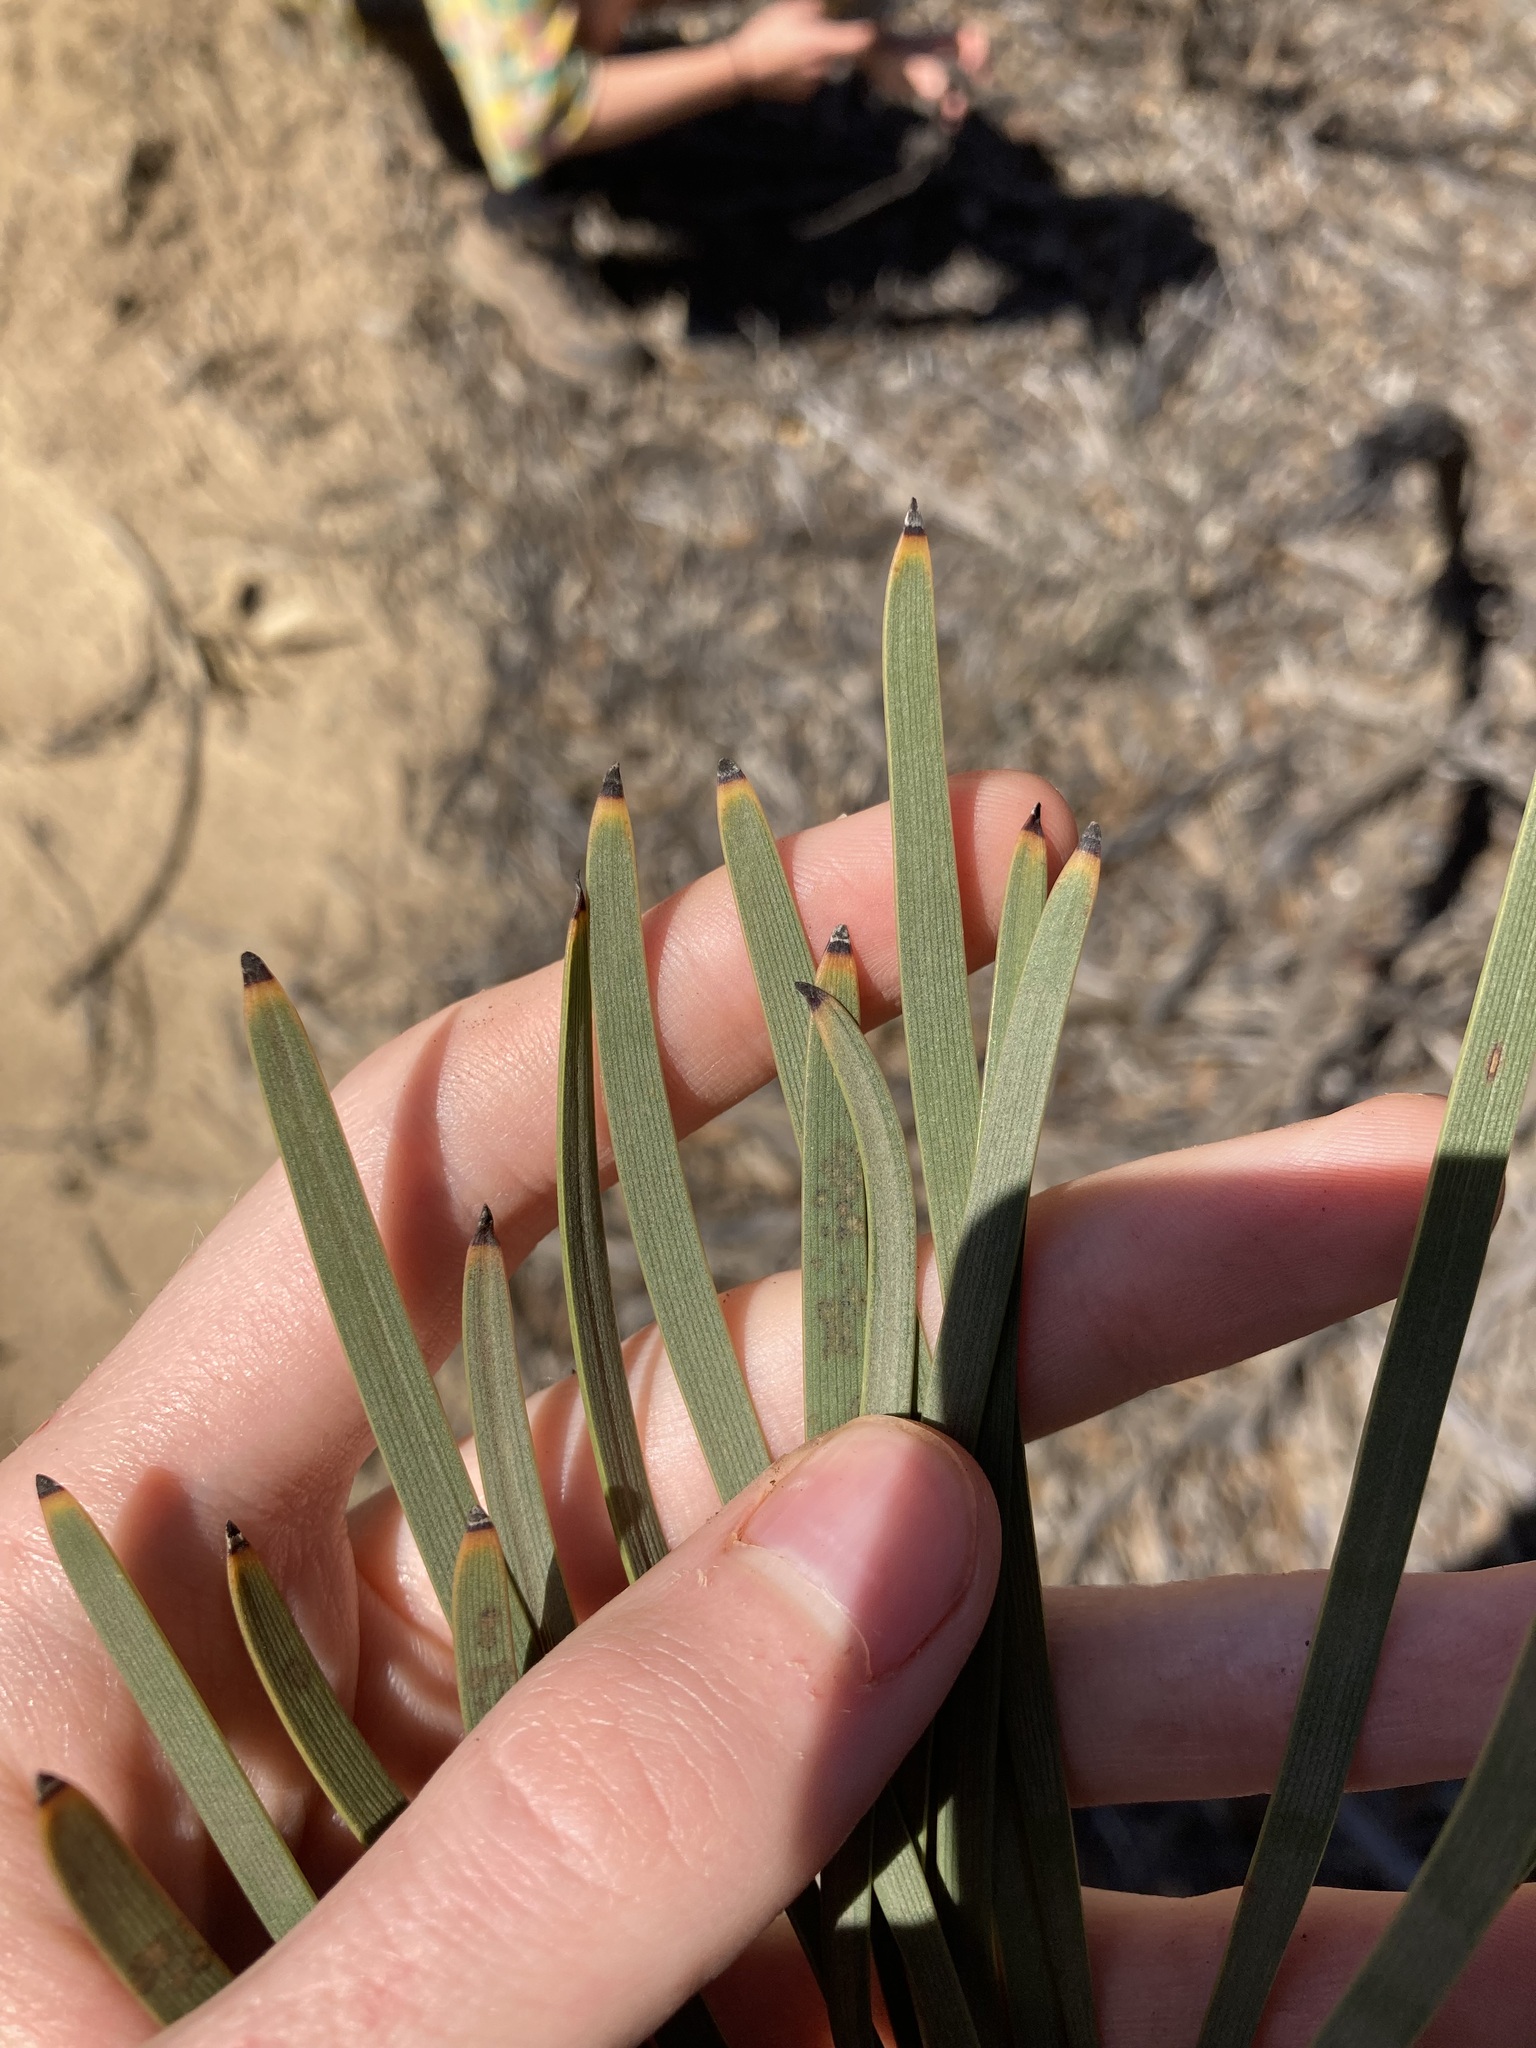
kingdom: Plantae
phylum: Tracheophyta
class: Magnoliopsida
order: Proteales
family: Proteaceae
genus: Hakea
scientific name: Hakea francisiana
